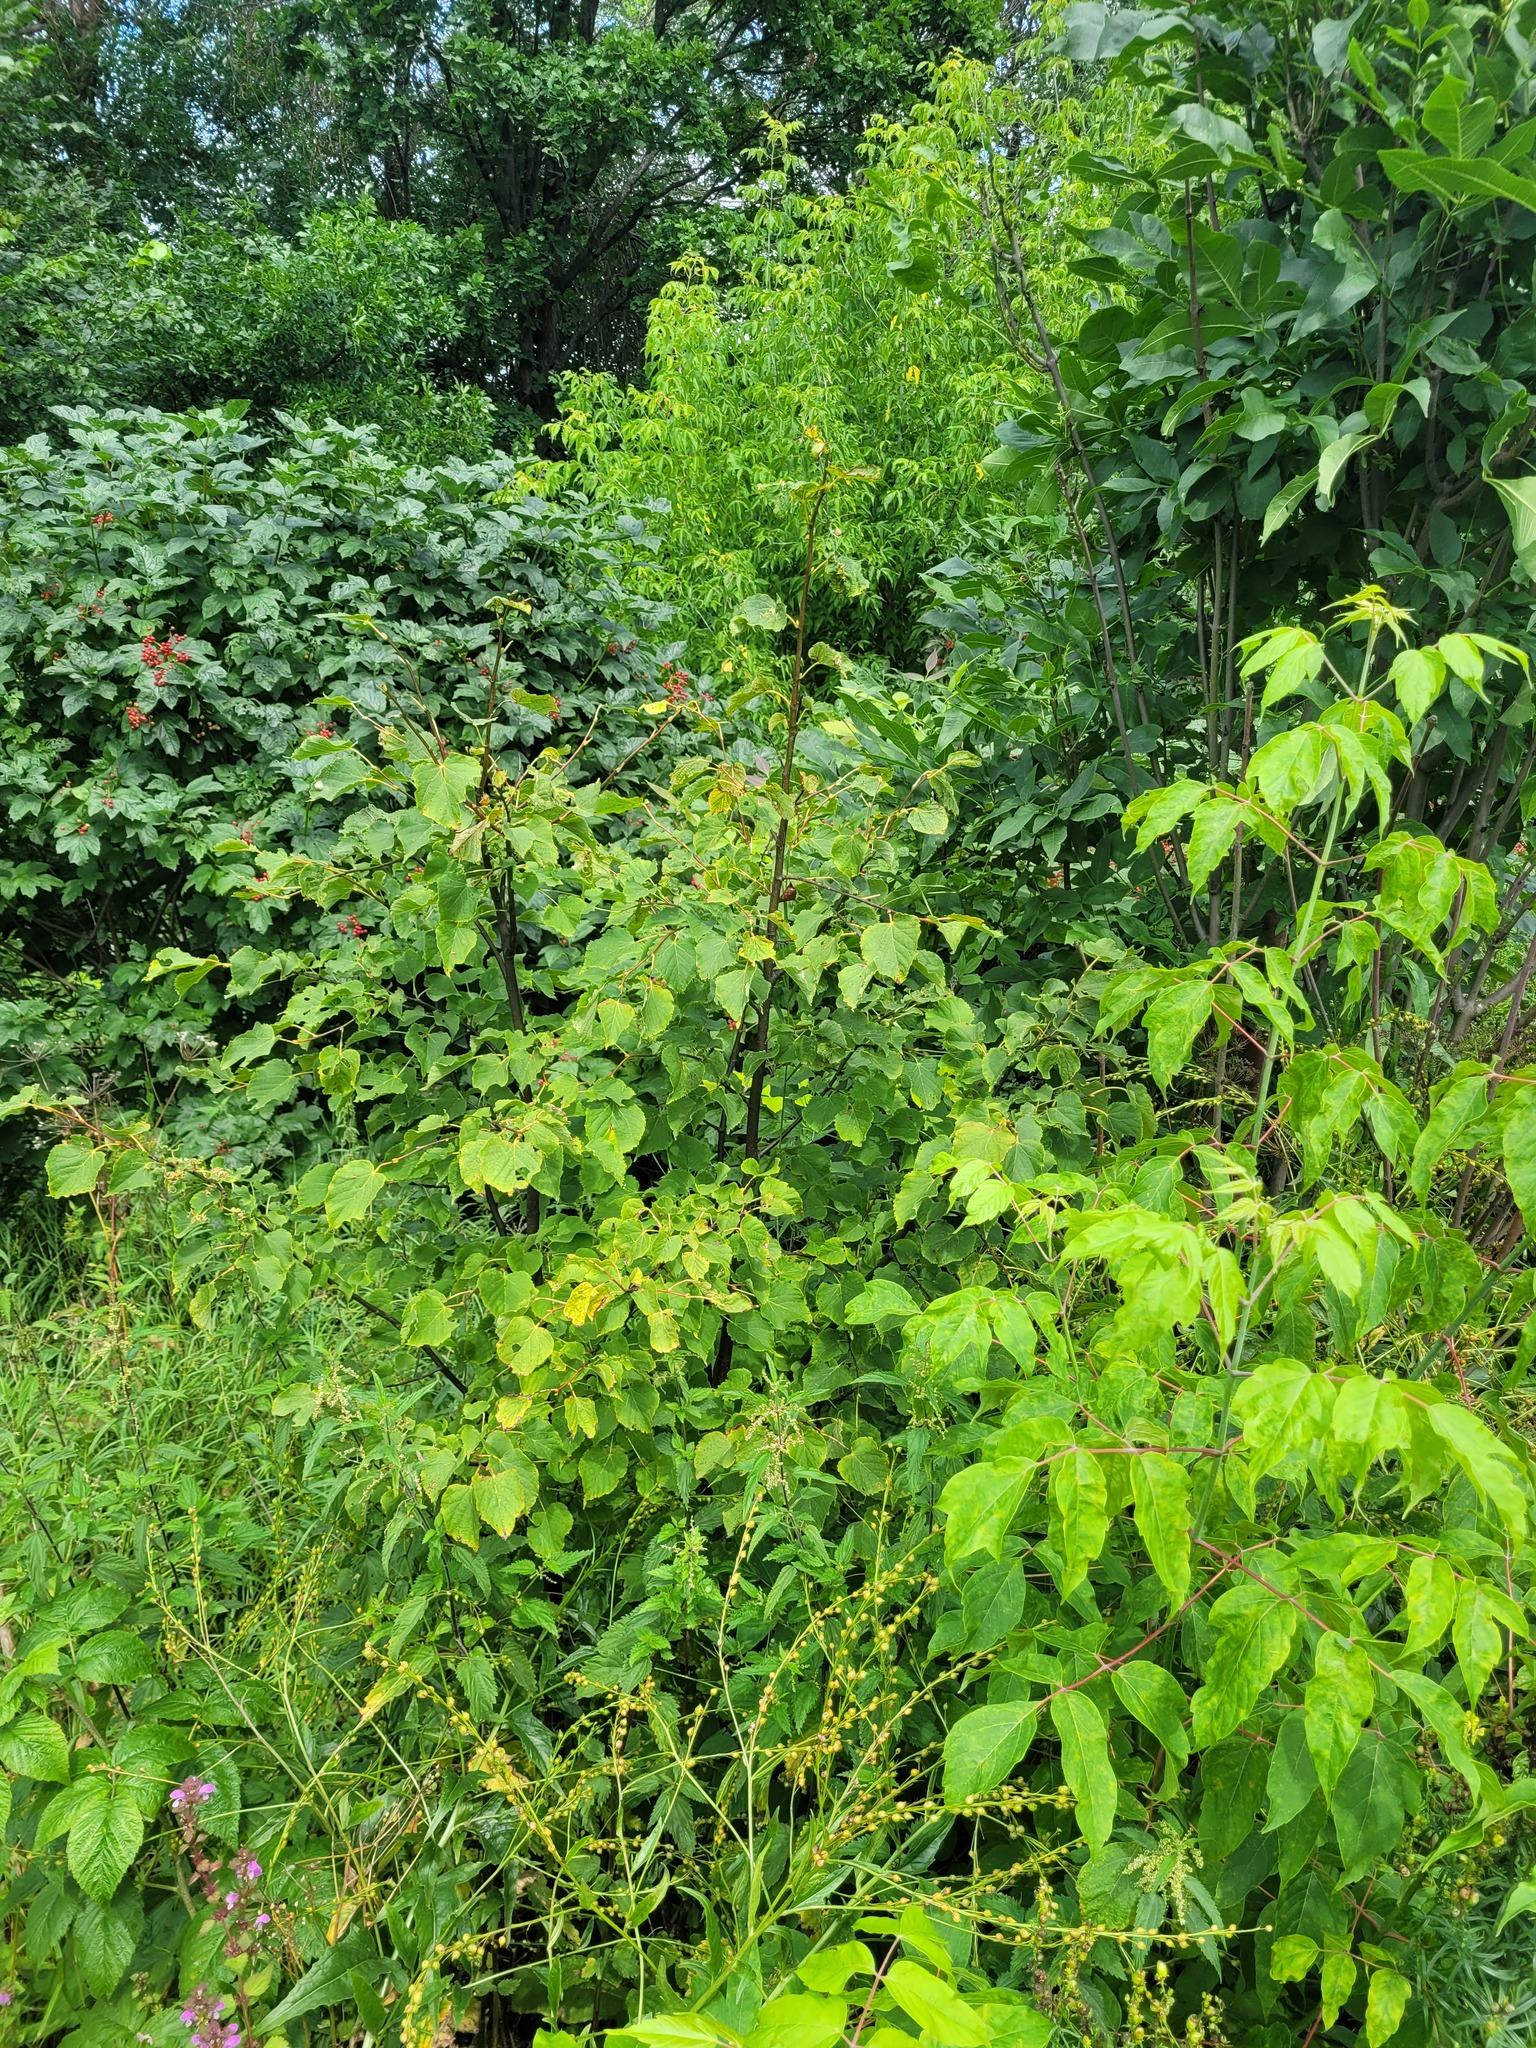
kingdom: Plantae
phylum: Tracheophyta
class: Magnoliopsida
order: Malvales
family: Malvaceae
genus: Tilia
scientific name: Tilia cordata
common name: Small-leaved lime
